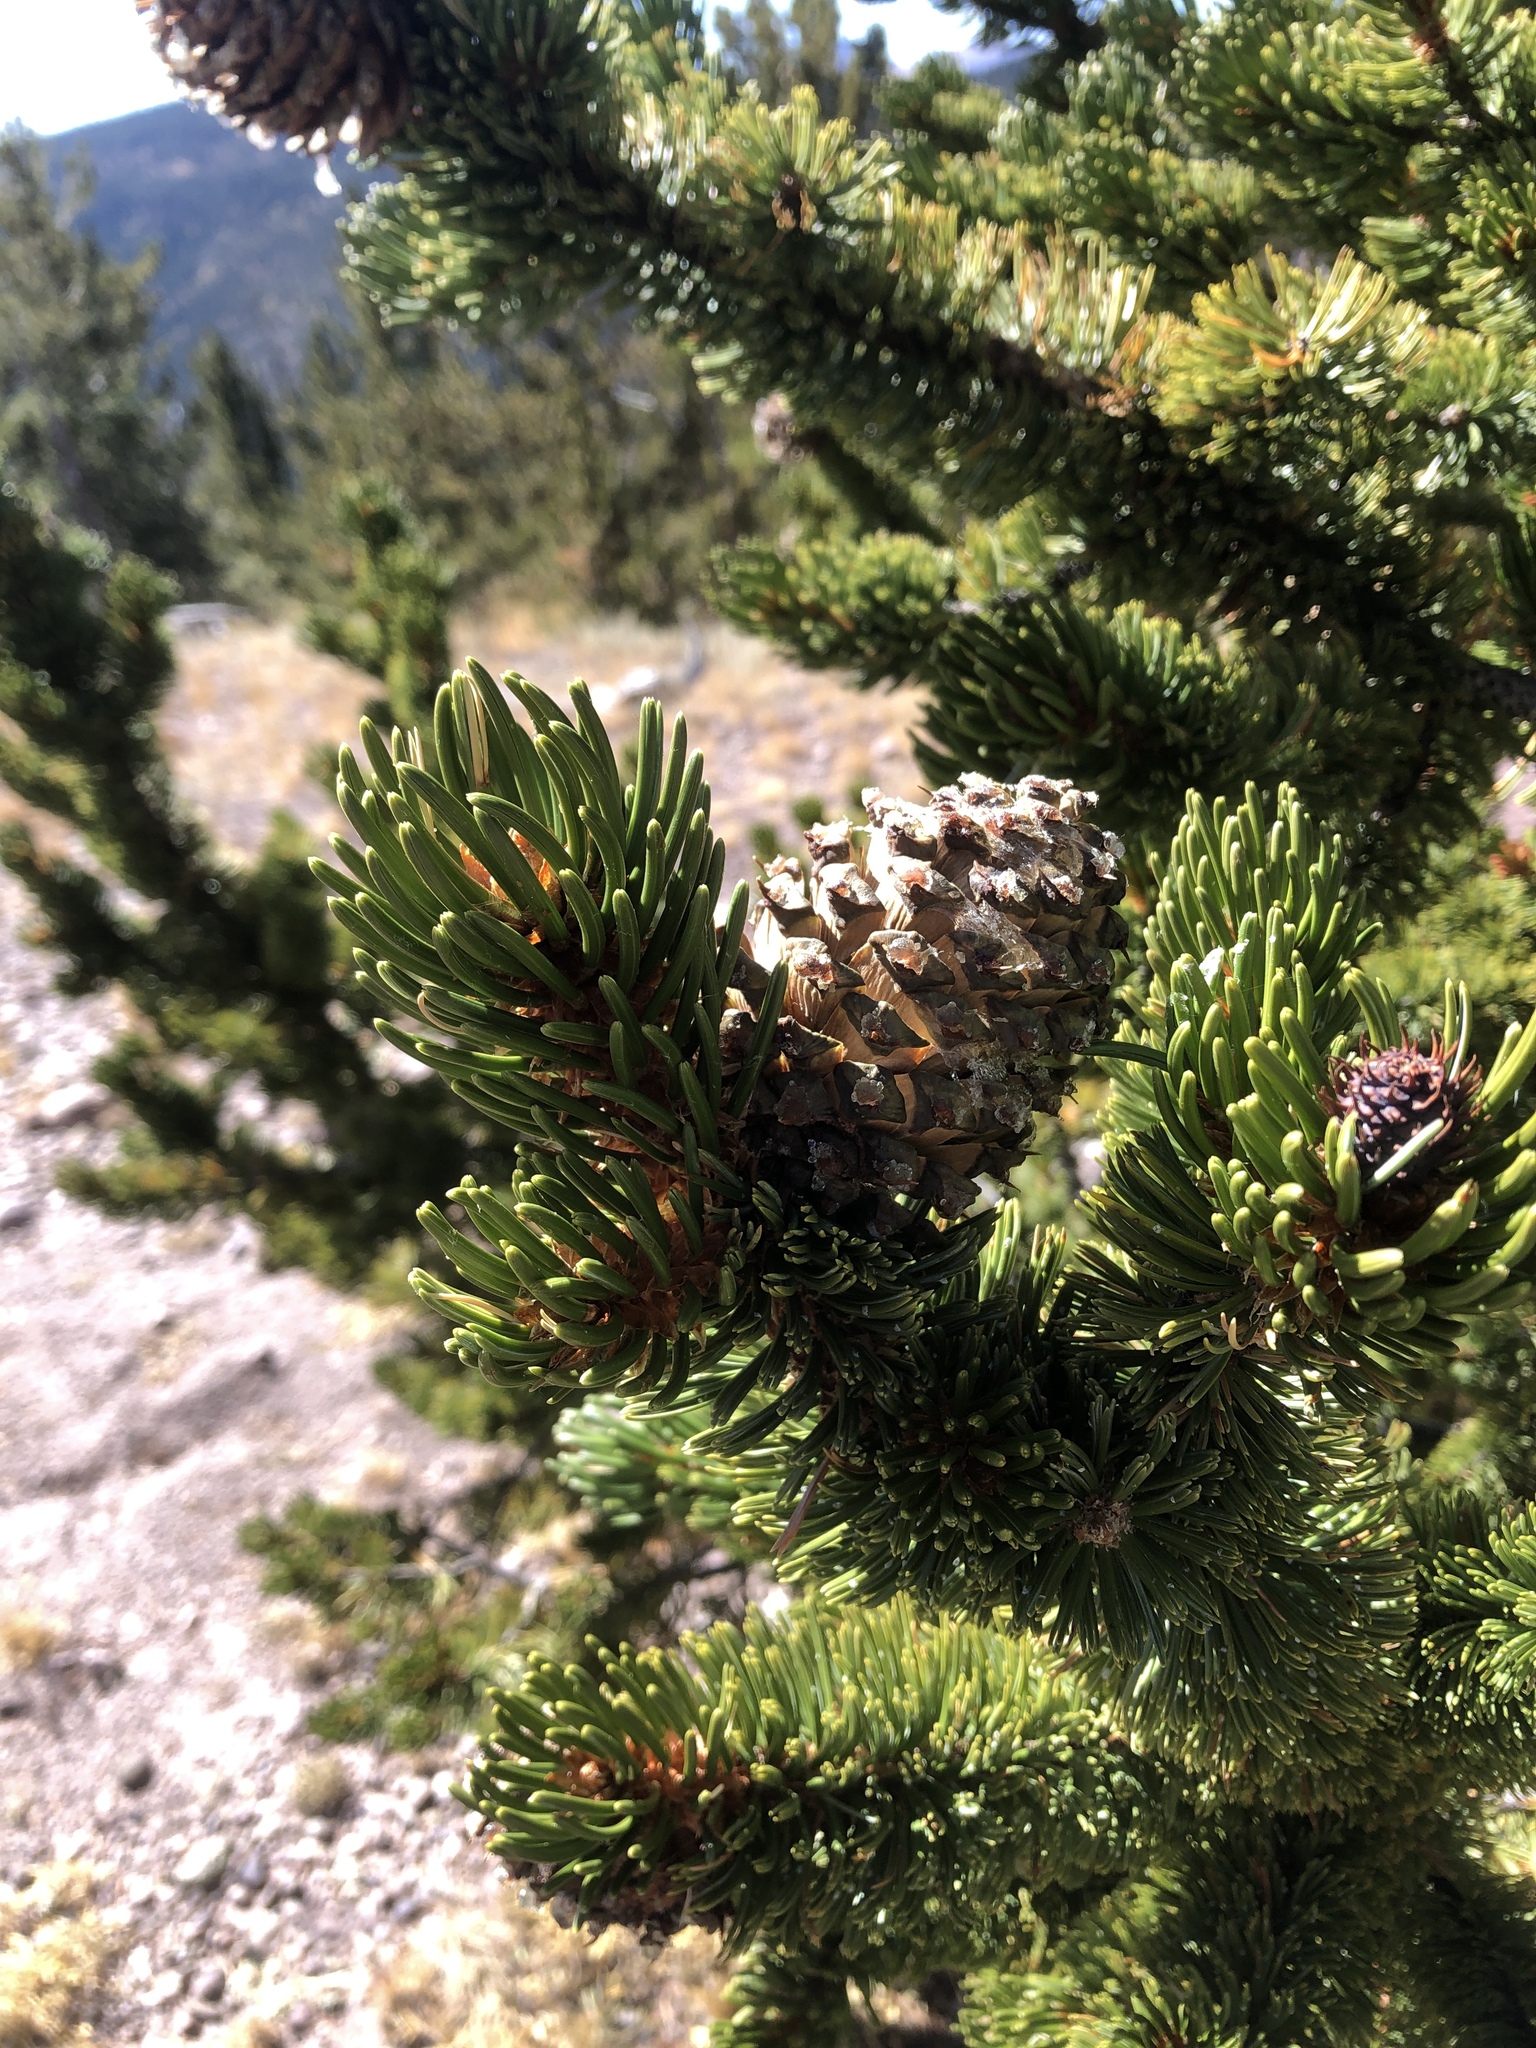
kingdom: Plantae
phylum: Tracheophyta
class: Pinopsida
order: Pinales
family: Pinaceae
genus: Pinus
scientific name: Pinus aristata
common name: Colorado bristlecone pine
